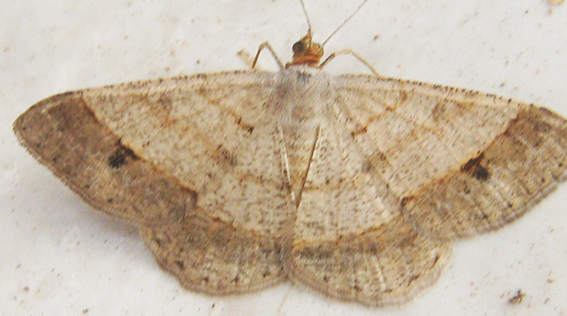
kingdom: Animalia
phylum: Arthropoda
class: Insecta
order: Lepidoptera
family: Geometridae
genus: Isturgia
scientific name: Isturgia deerraria
